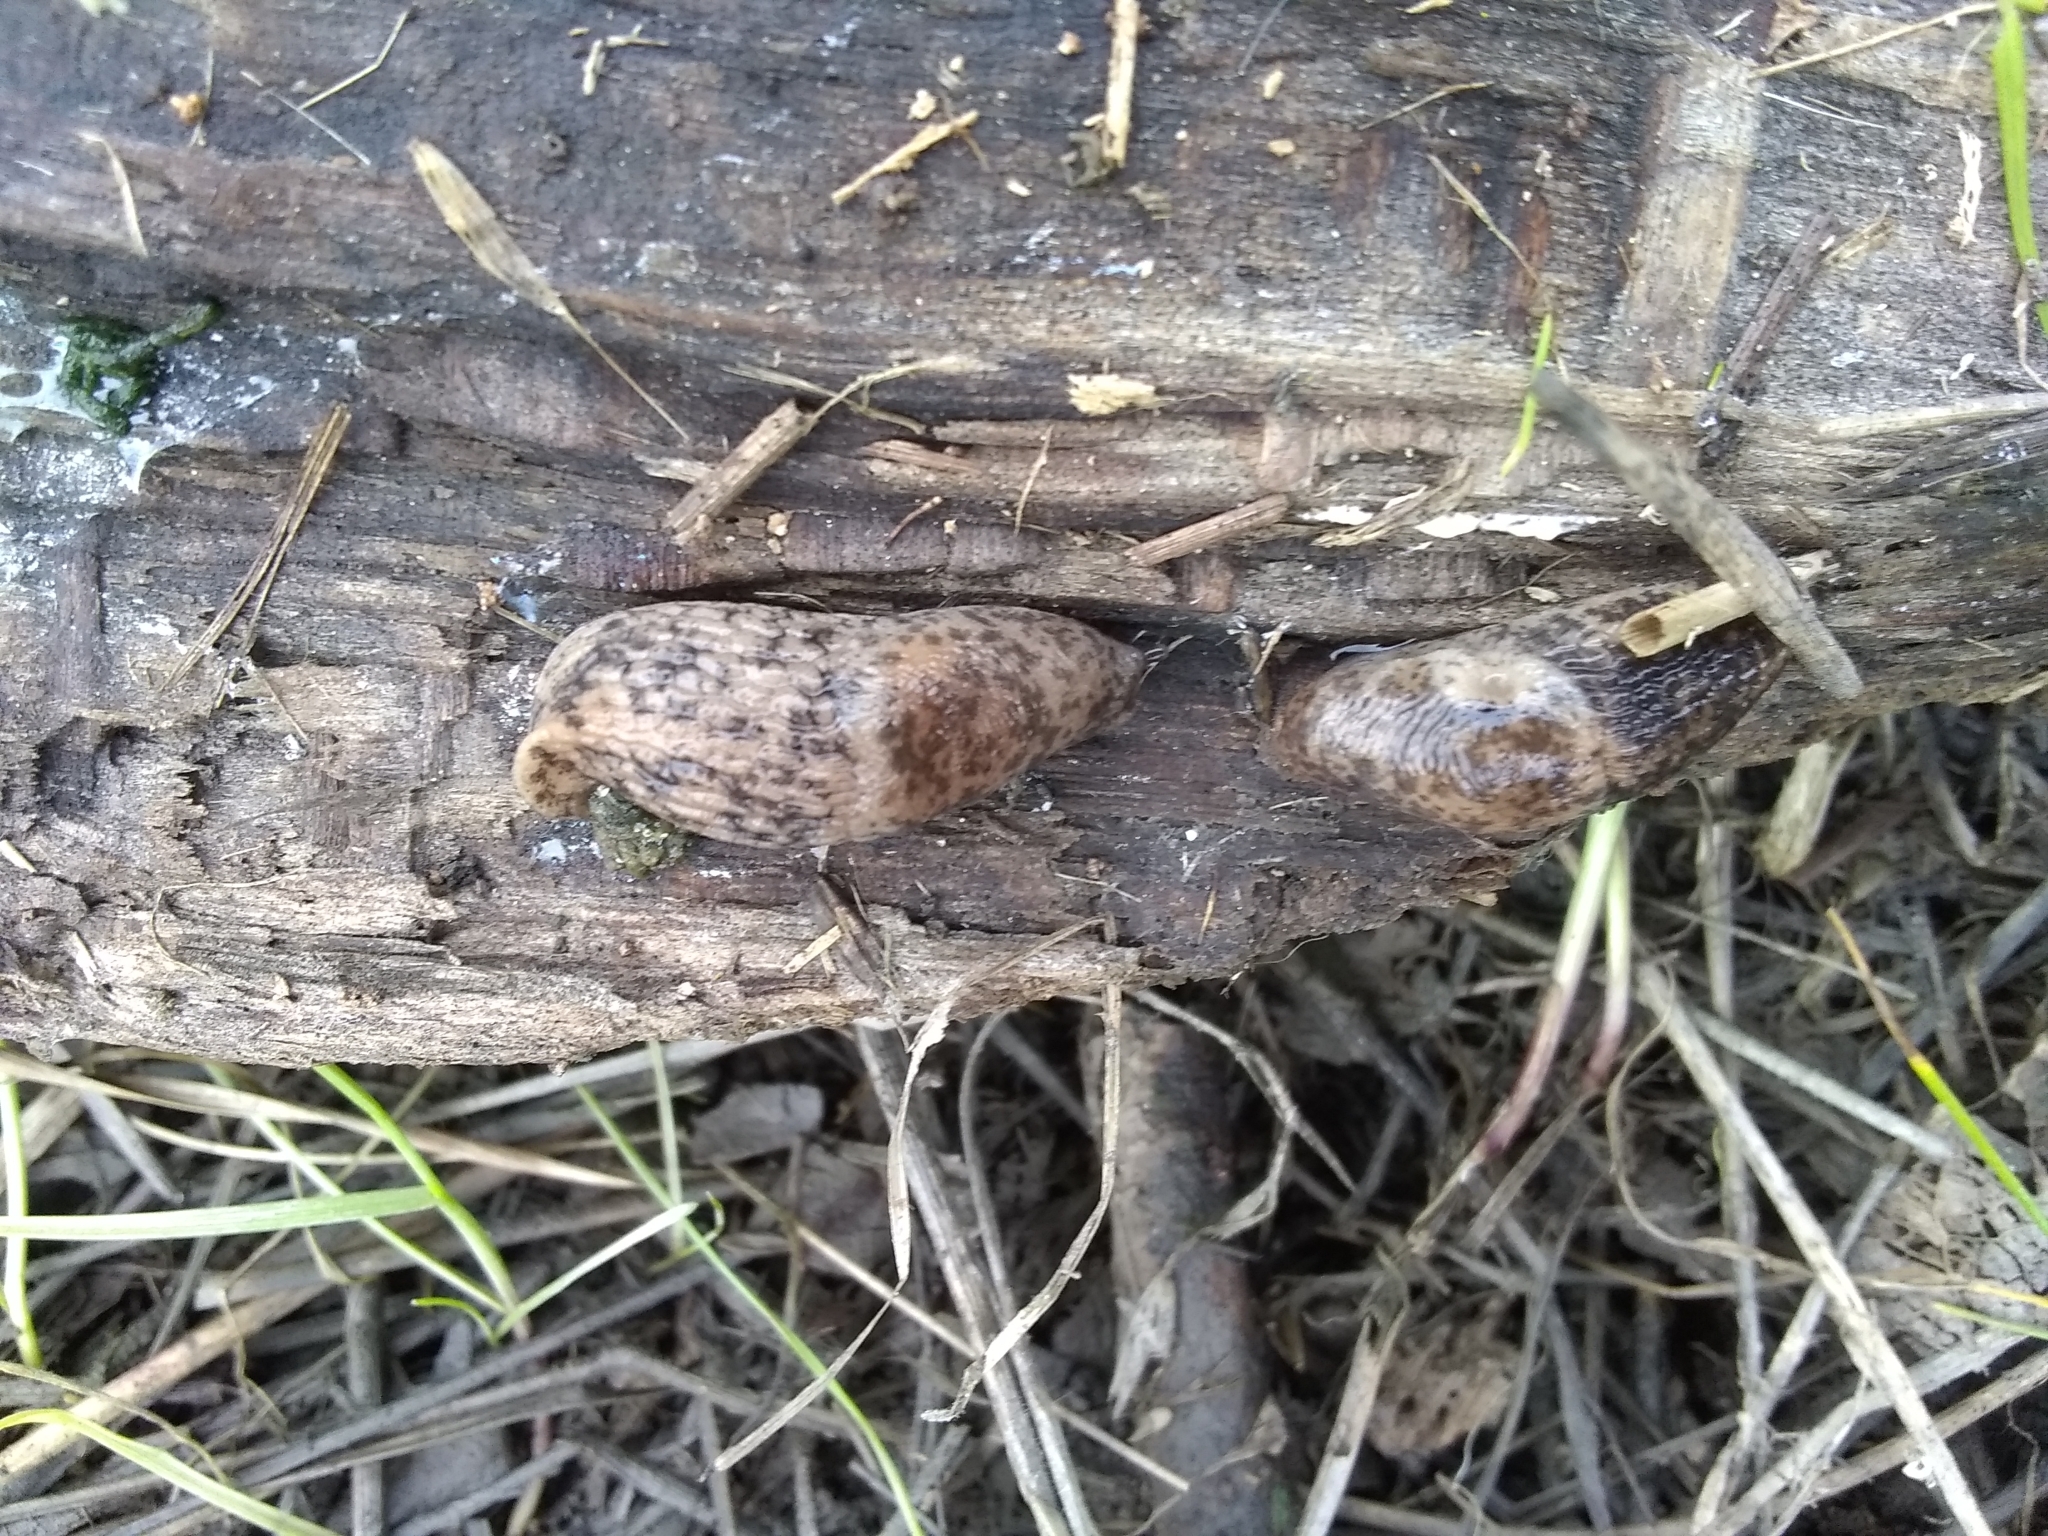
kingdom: Animalia
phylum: Mollusca
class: Gastropoda
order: Stylommatophora
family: Agriolimacidae
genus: Deroceras
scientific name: Deroceras reticulatum
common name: Gray field slug
